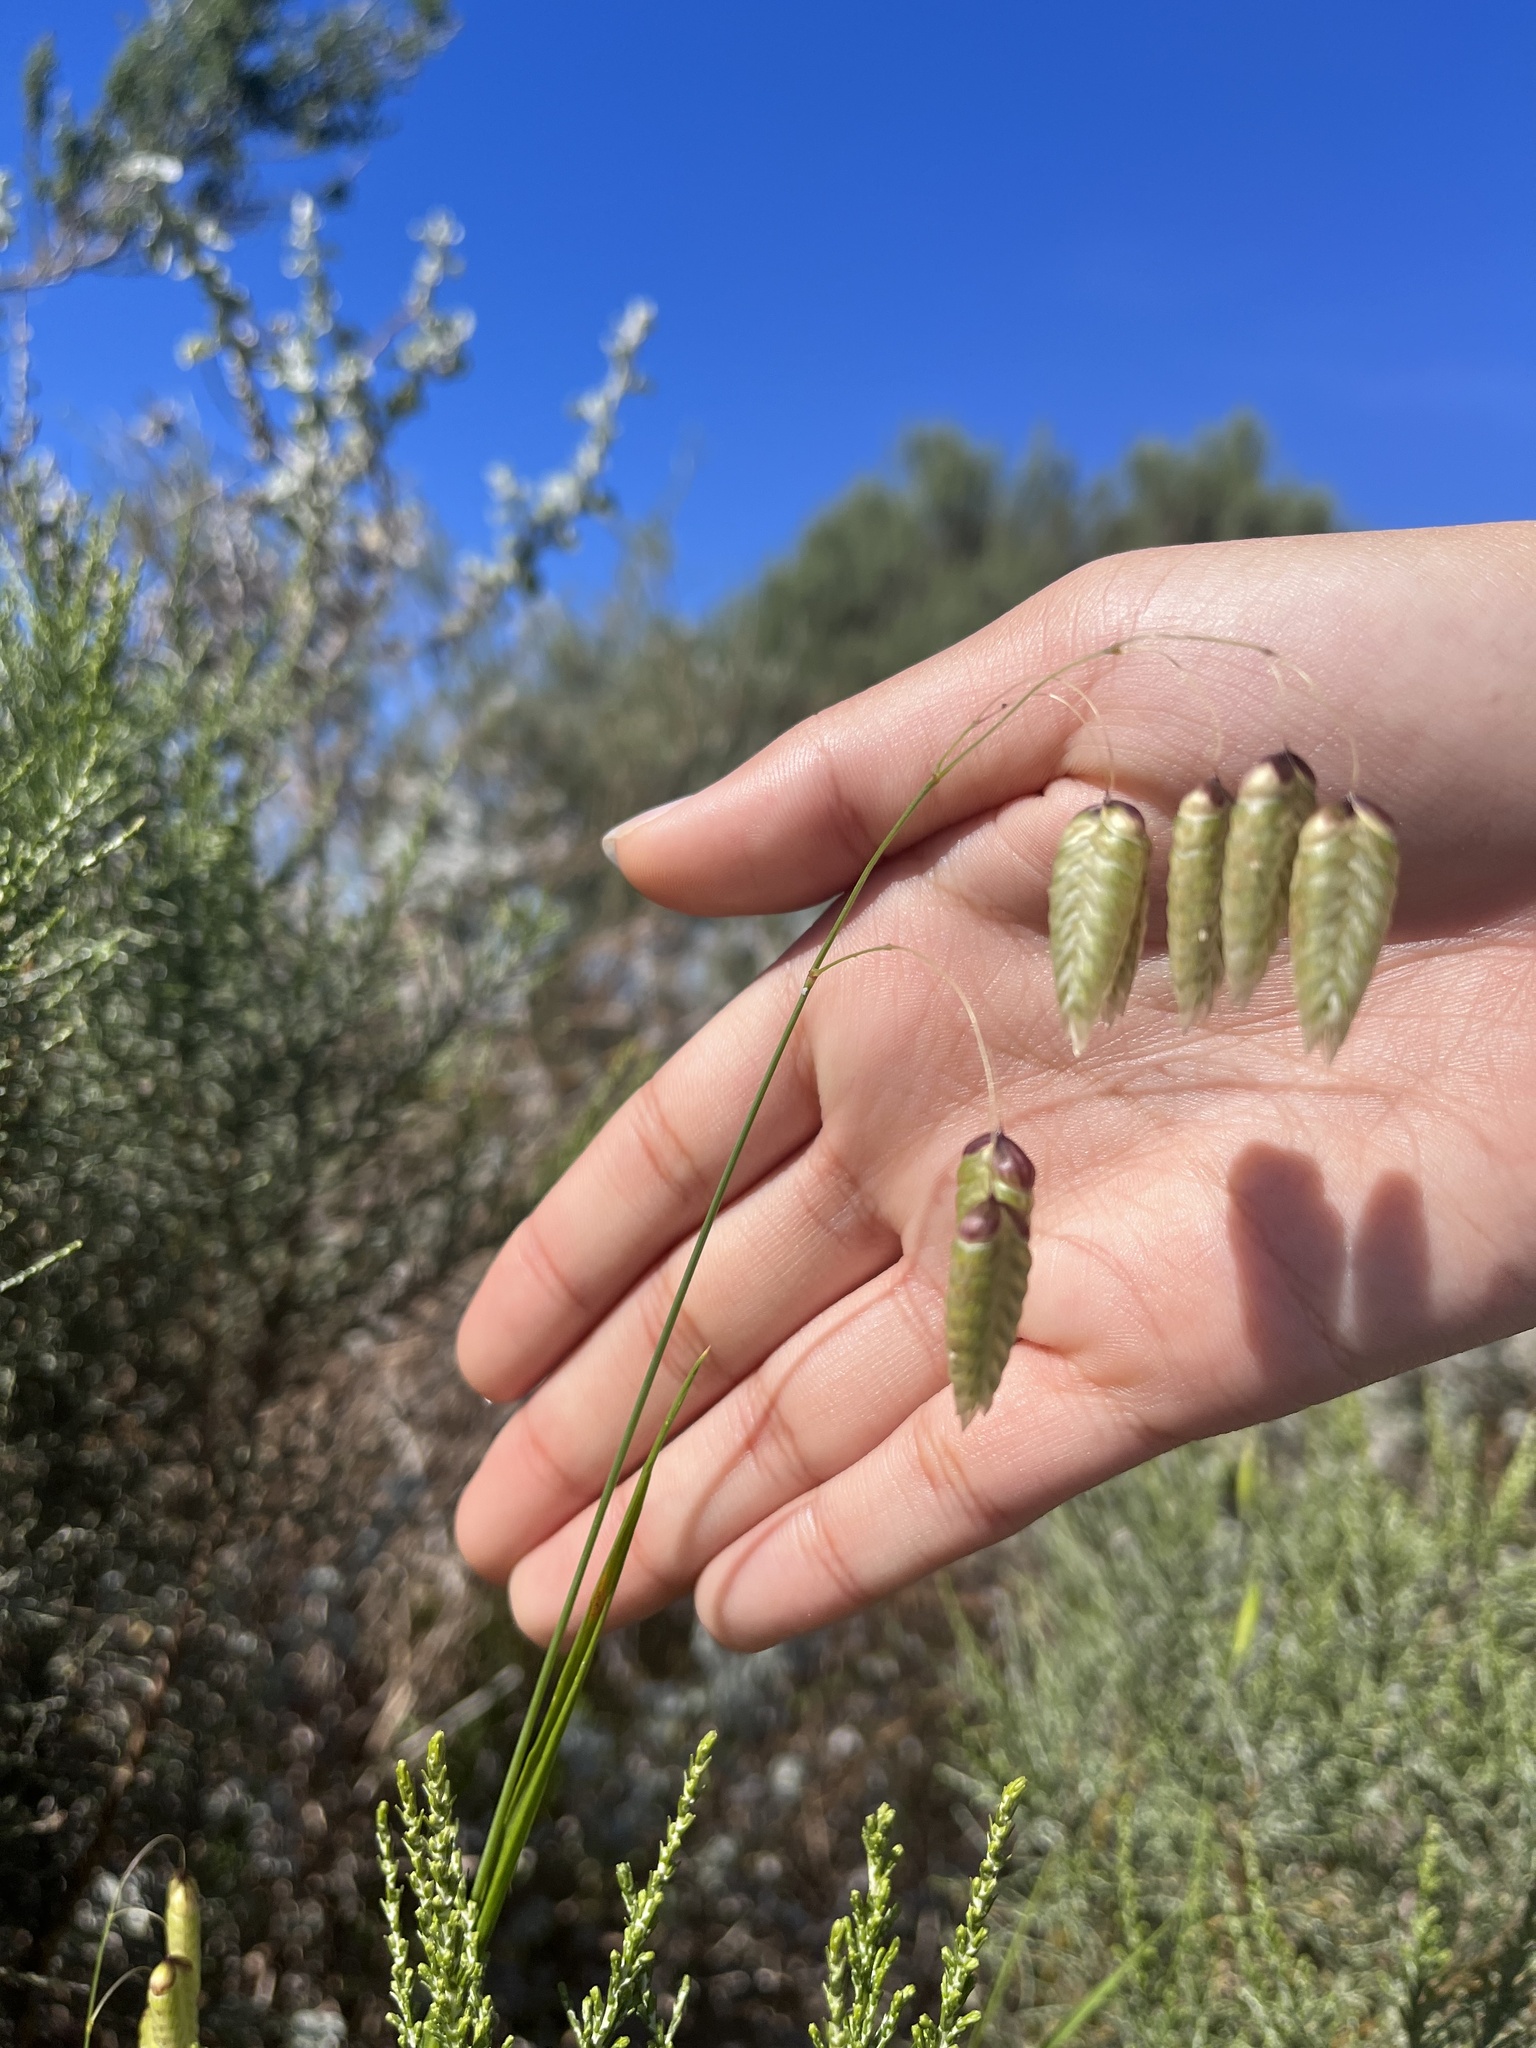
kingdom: Plantae
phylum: Tracheophyta
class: Liliopsida
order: Poales
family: Poaceae
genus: Briza
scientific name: Briza maxima
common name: Big quakinggrass
